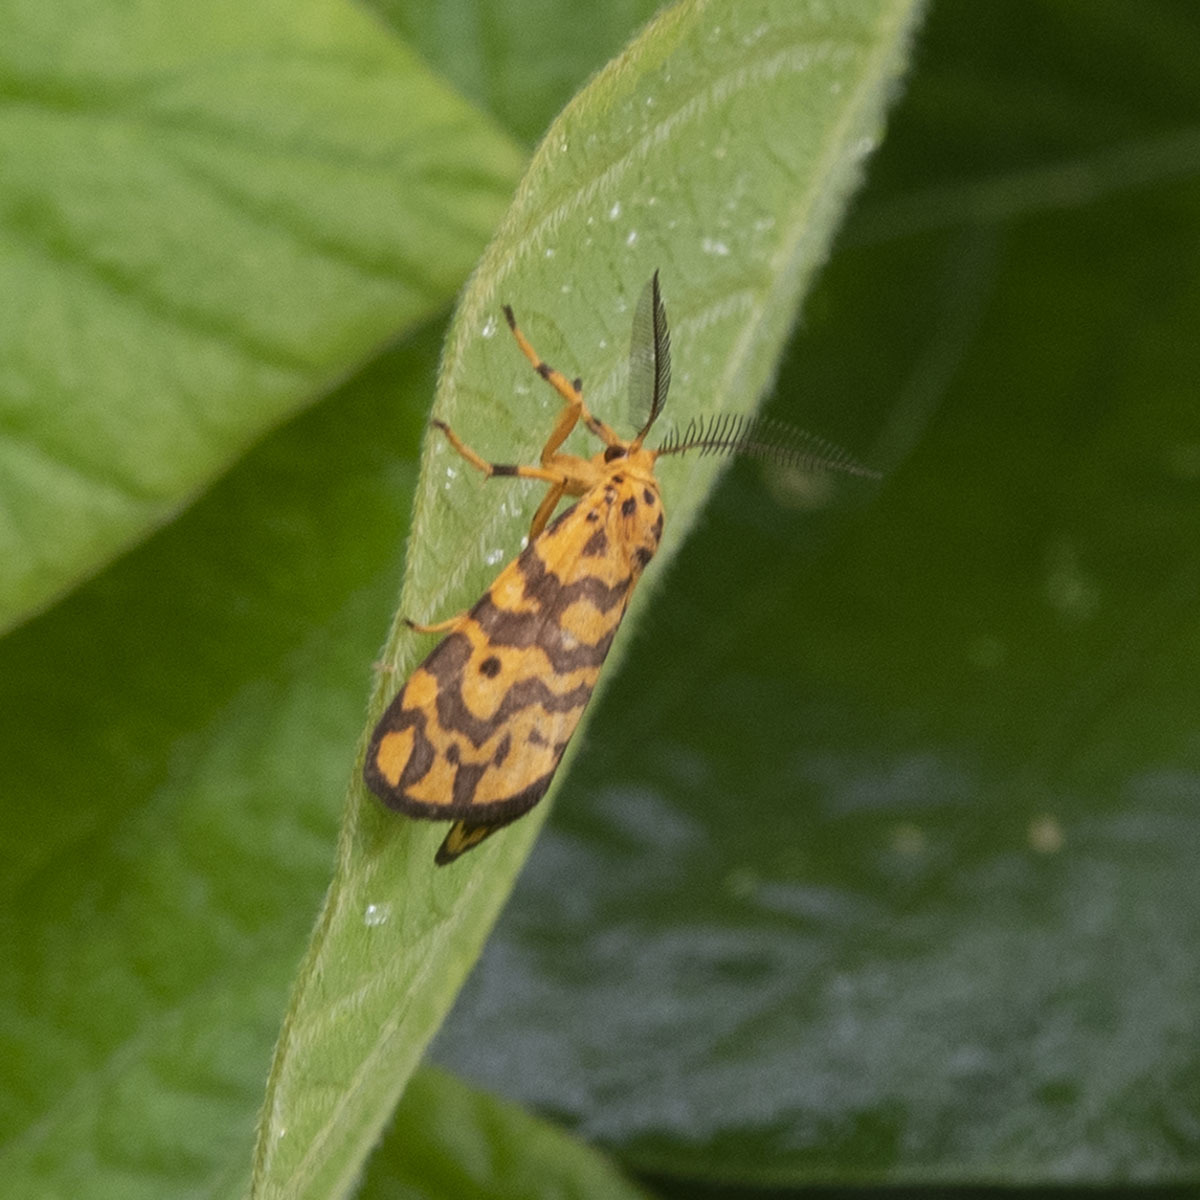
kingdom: Animalia
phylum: Arthropoda
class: Insecta
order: Lepidoptera
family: Erebidae
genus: Nepita
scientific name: Nepita conferta
